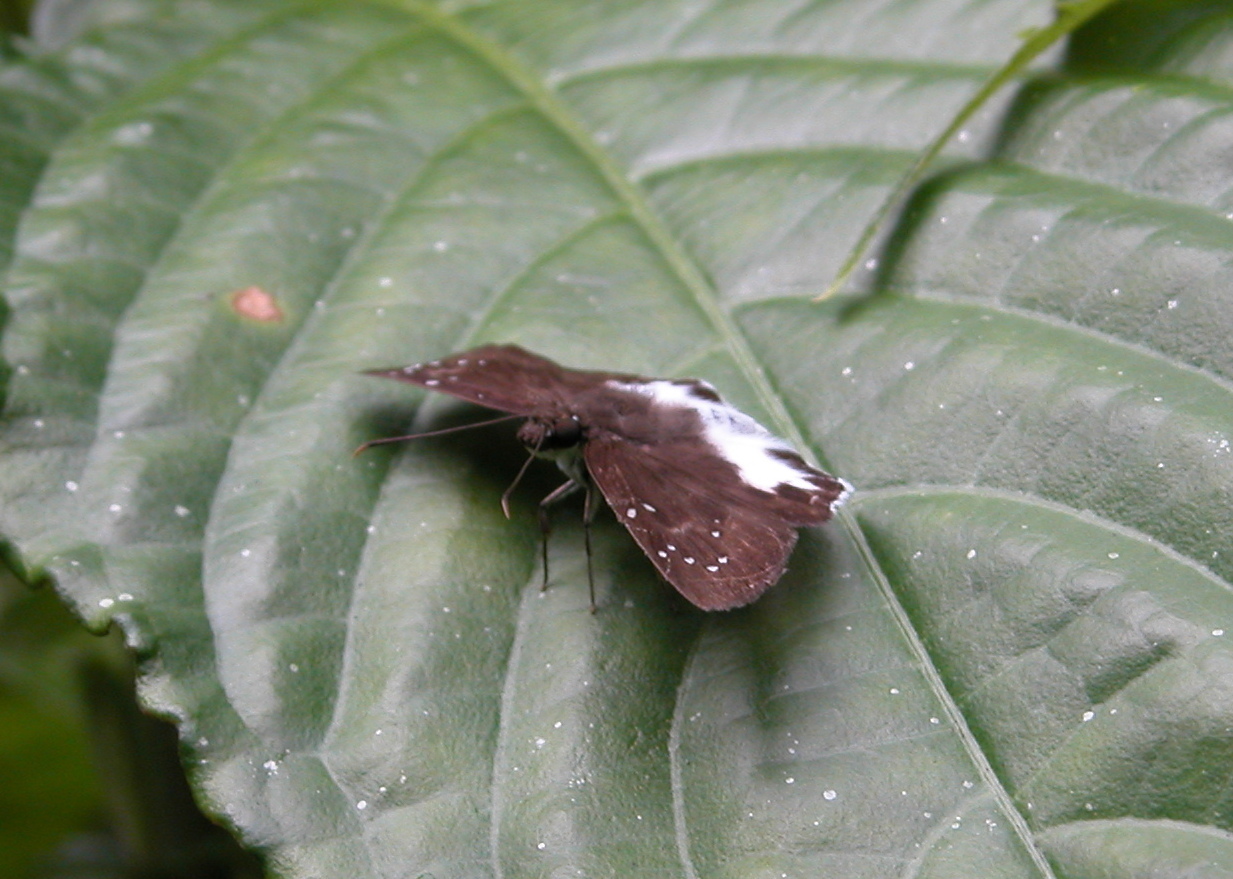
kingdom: Animalia
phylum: Arthropoda
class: Insecta
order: Lepidoptera
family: Hesperiidae
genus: Tagiades
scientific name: Tagiades litigiosa
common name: Water snow flat
